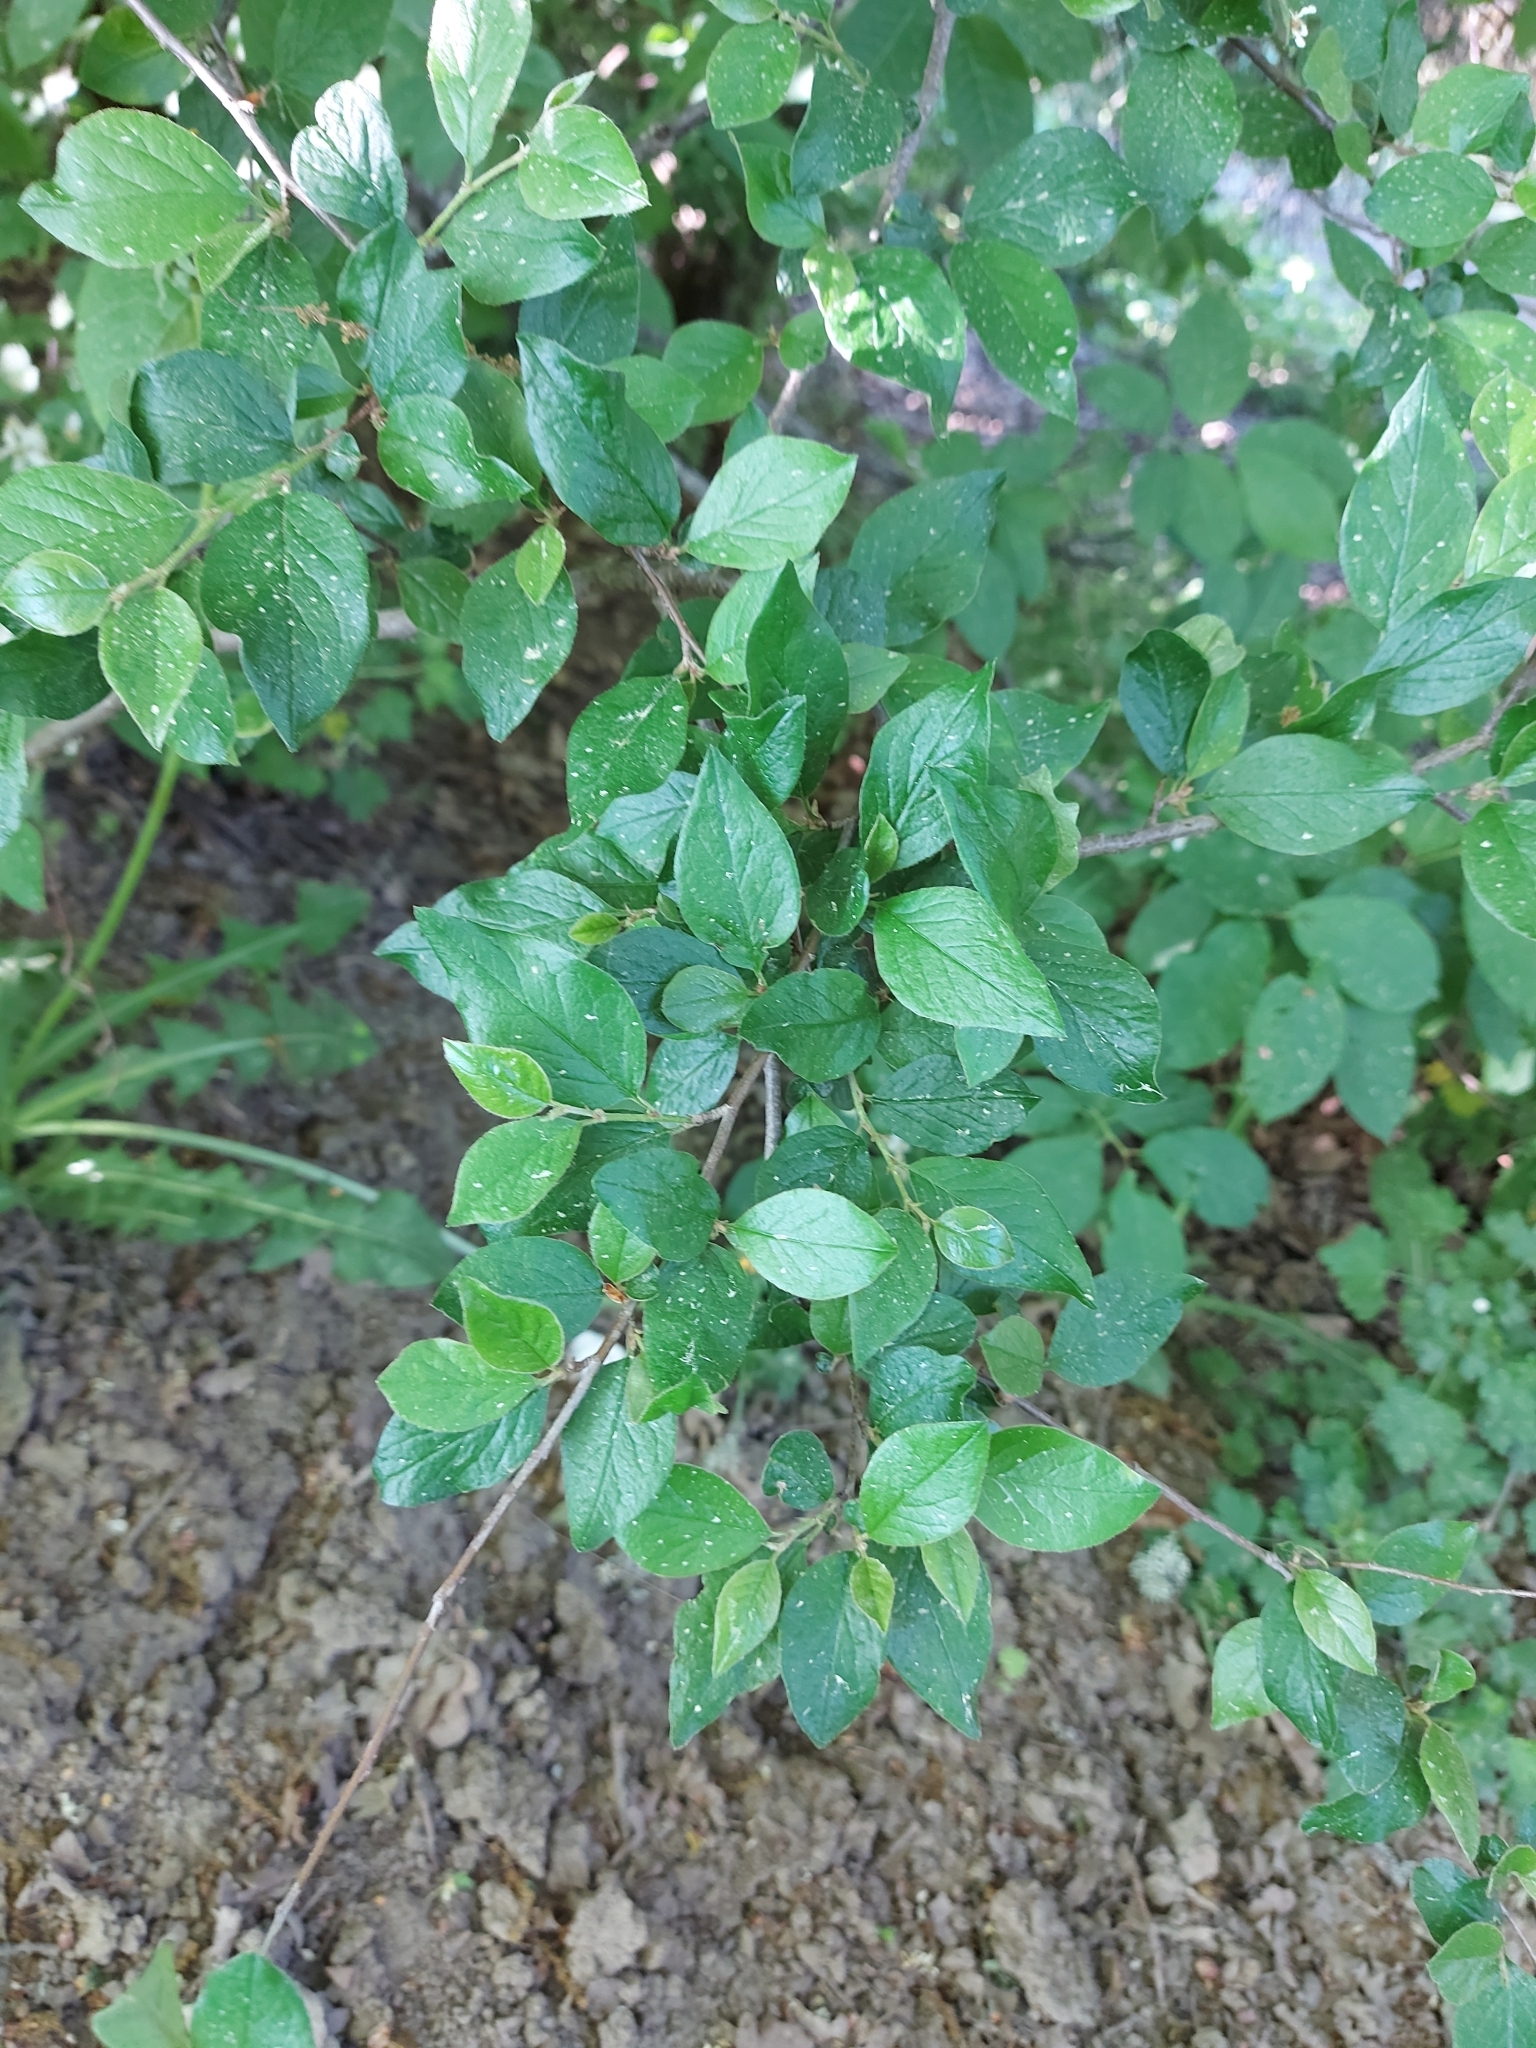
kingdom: Plantae
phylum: Tracheophyta
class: Magnoliopsida
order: Rosales
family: Rosaceae
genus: Cotoneaster
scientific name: Cotoneaster acutifolius
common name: Peking cotoneaster
